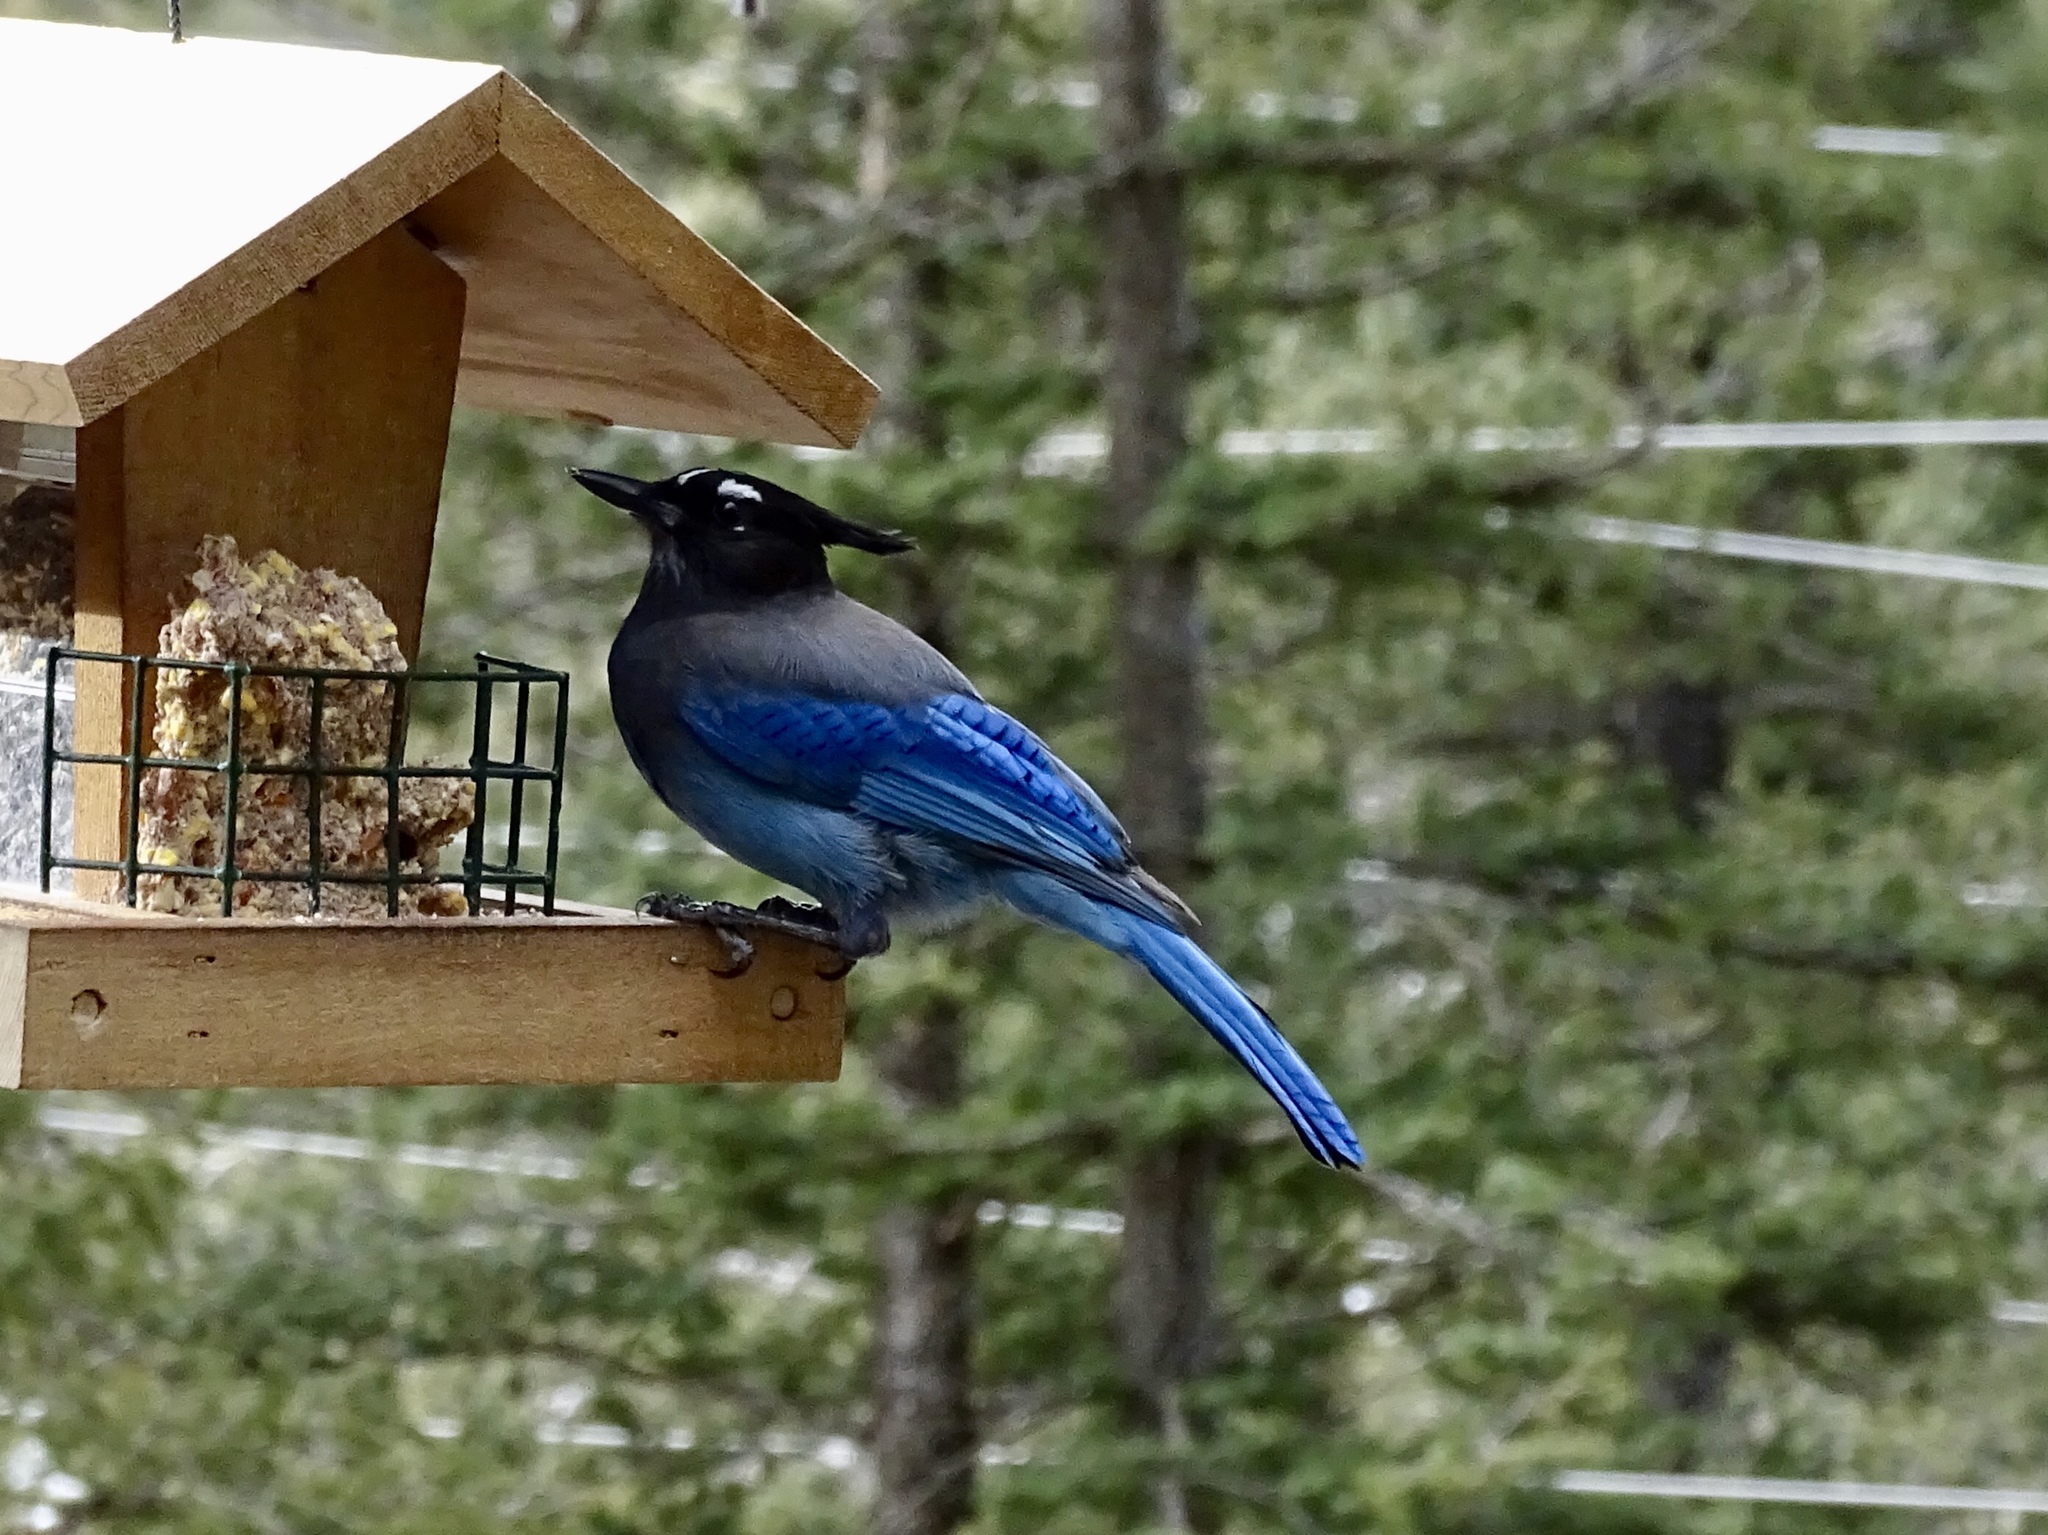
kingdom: Animalia
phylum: Chordata
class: Aves
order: Passeriformes
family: Corvidae
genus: Cyanocitta
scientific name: Cyanocitta stelleri
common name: Steller's jay
